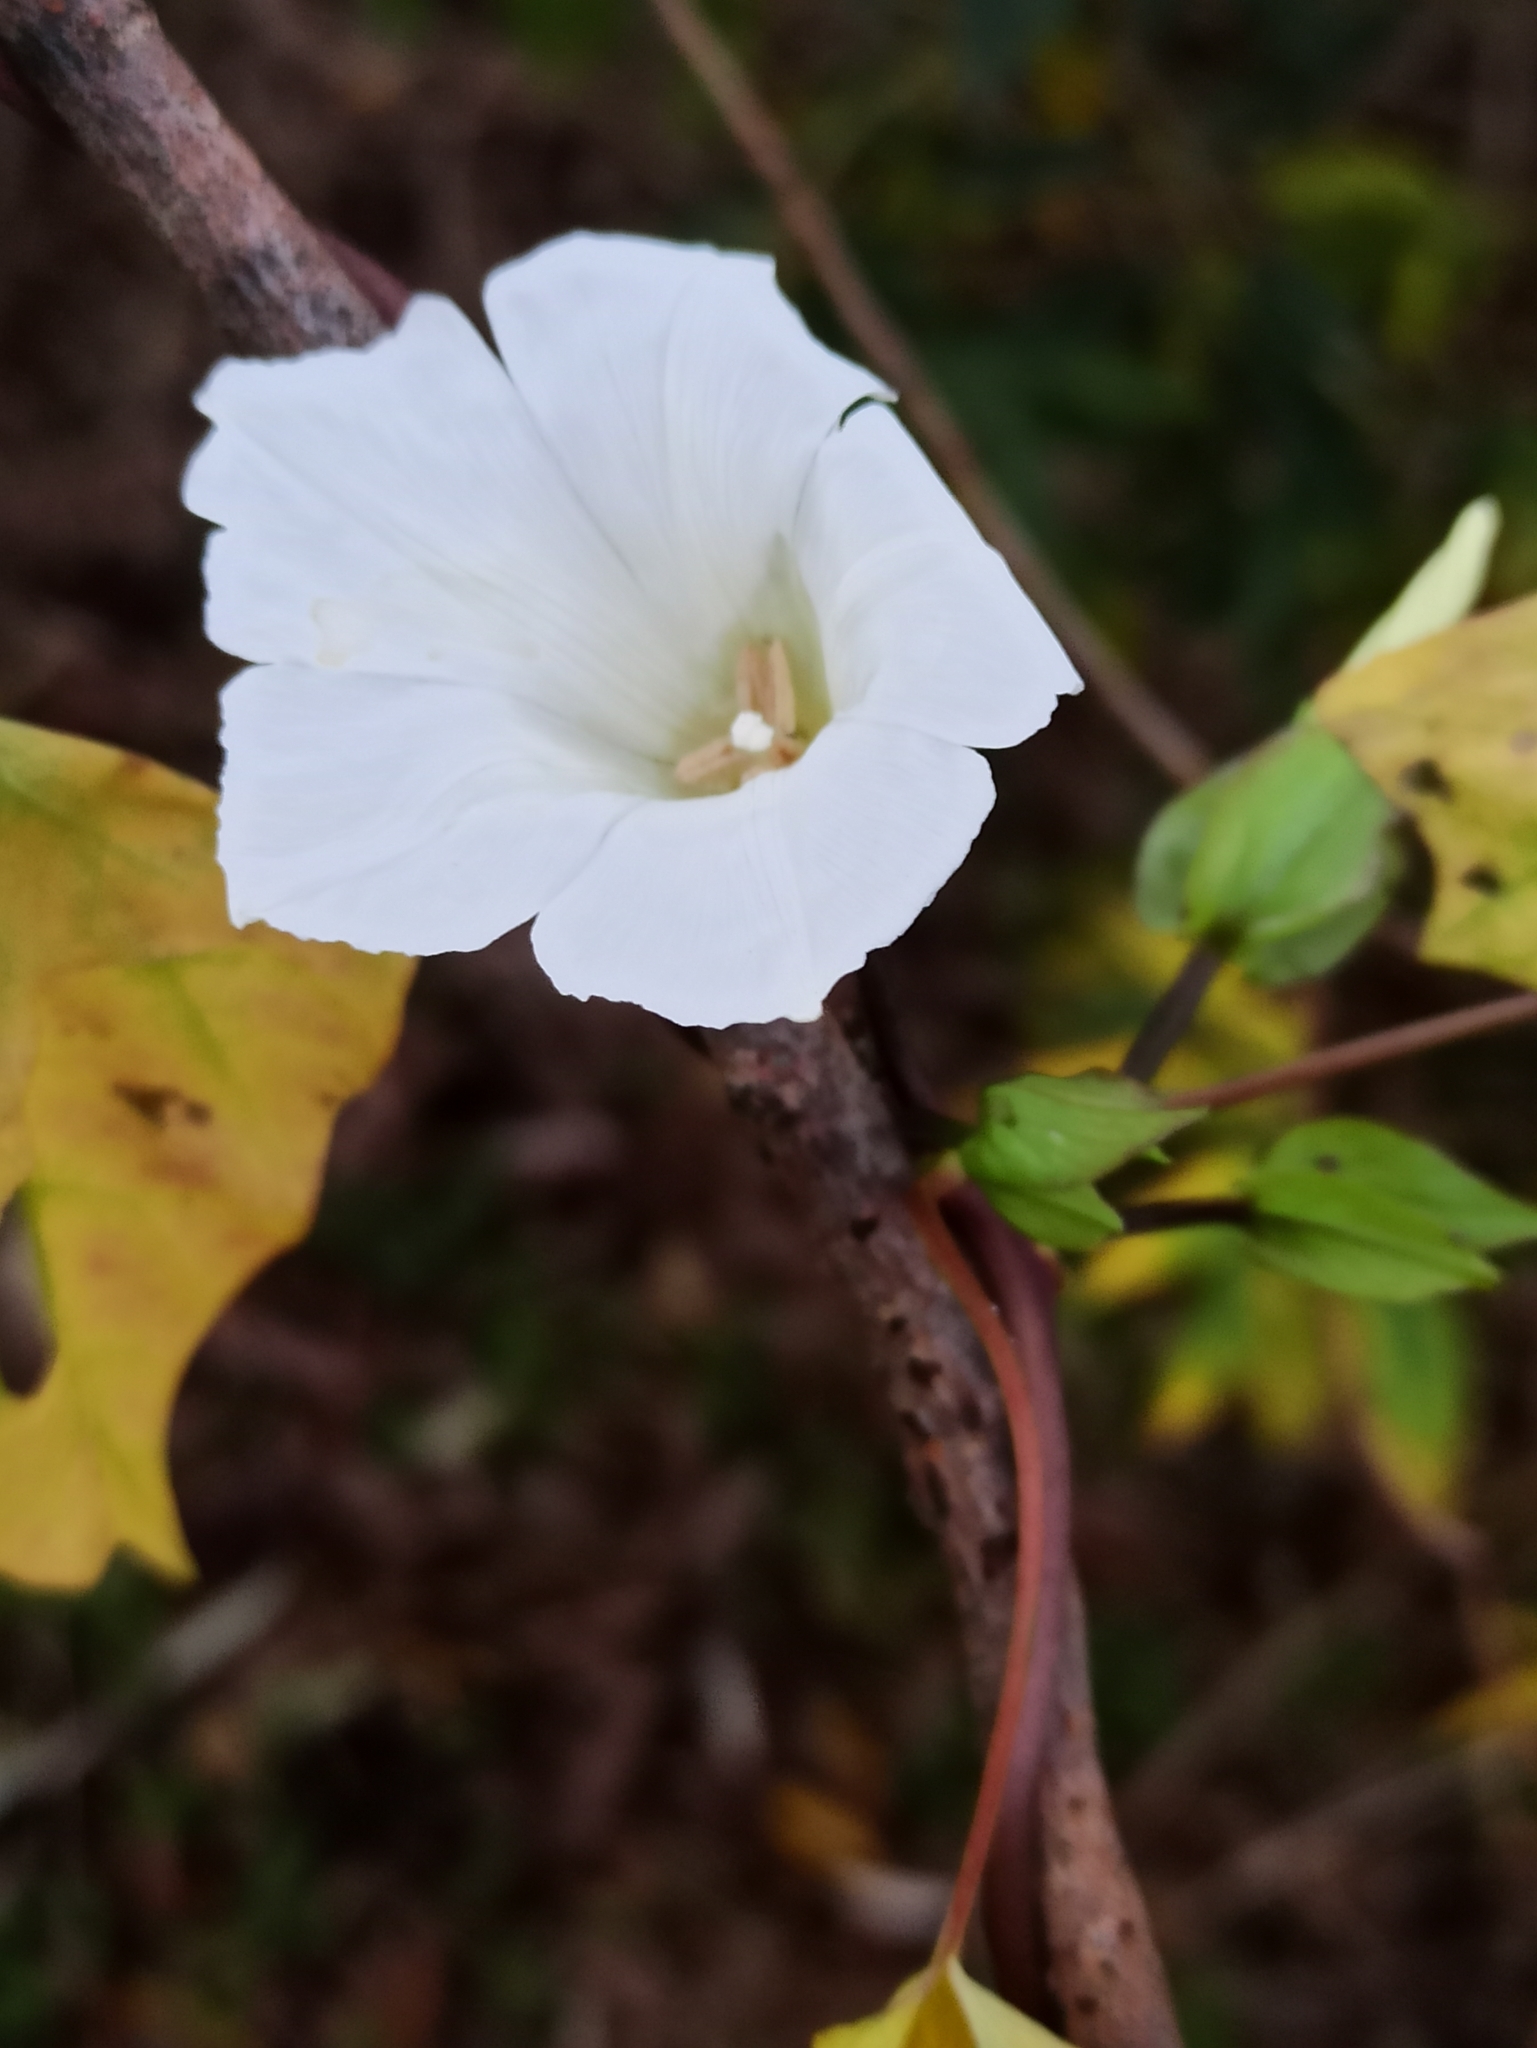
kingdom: Plantae
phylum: Tracheophyta
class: Magnoliopsida
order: Solanales
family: Convolvulaceae
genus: Calystegia
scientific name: Calystegia sepium
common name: Hedge bindweed
